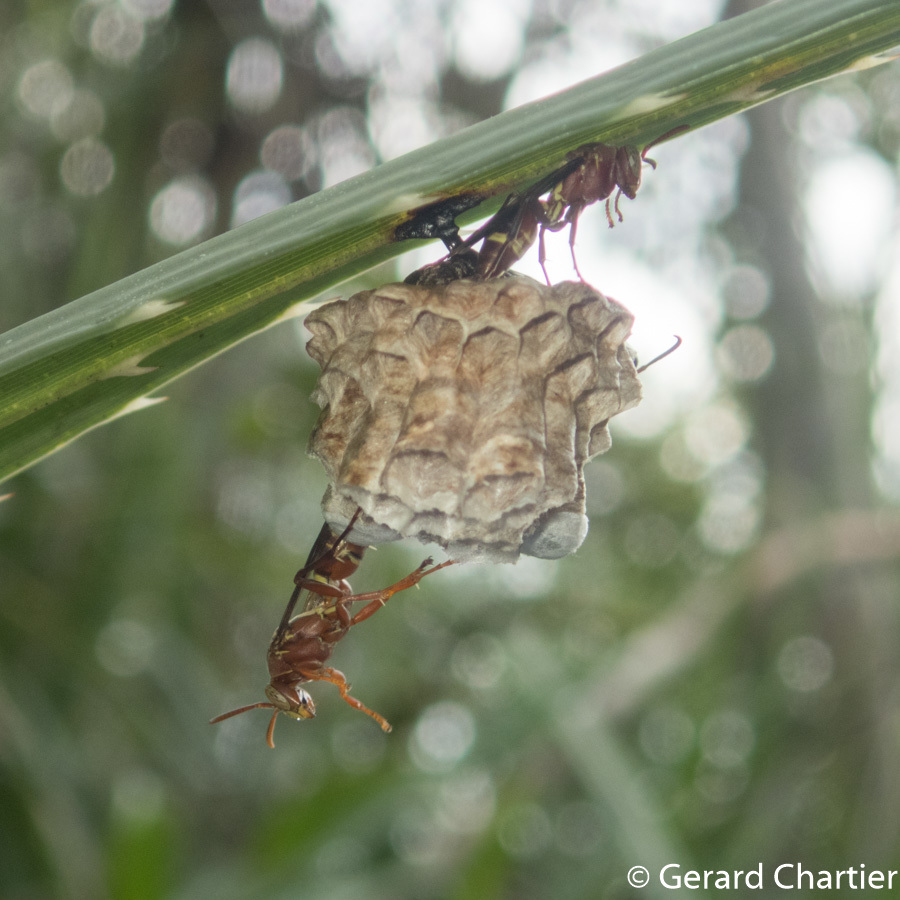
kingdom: Animalia
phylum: Arthropoda
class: Insecta
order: Hymenoptera
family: Eumenidae
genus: Polistes
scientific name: Polistes stigma
